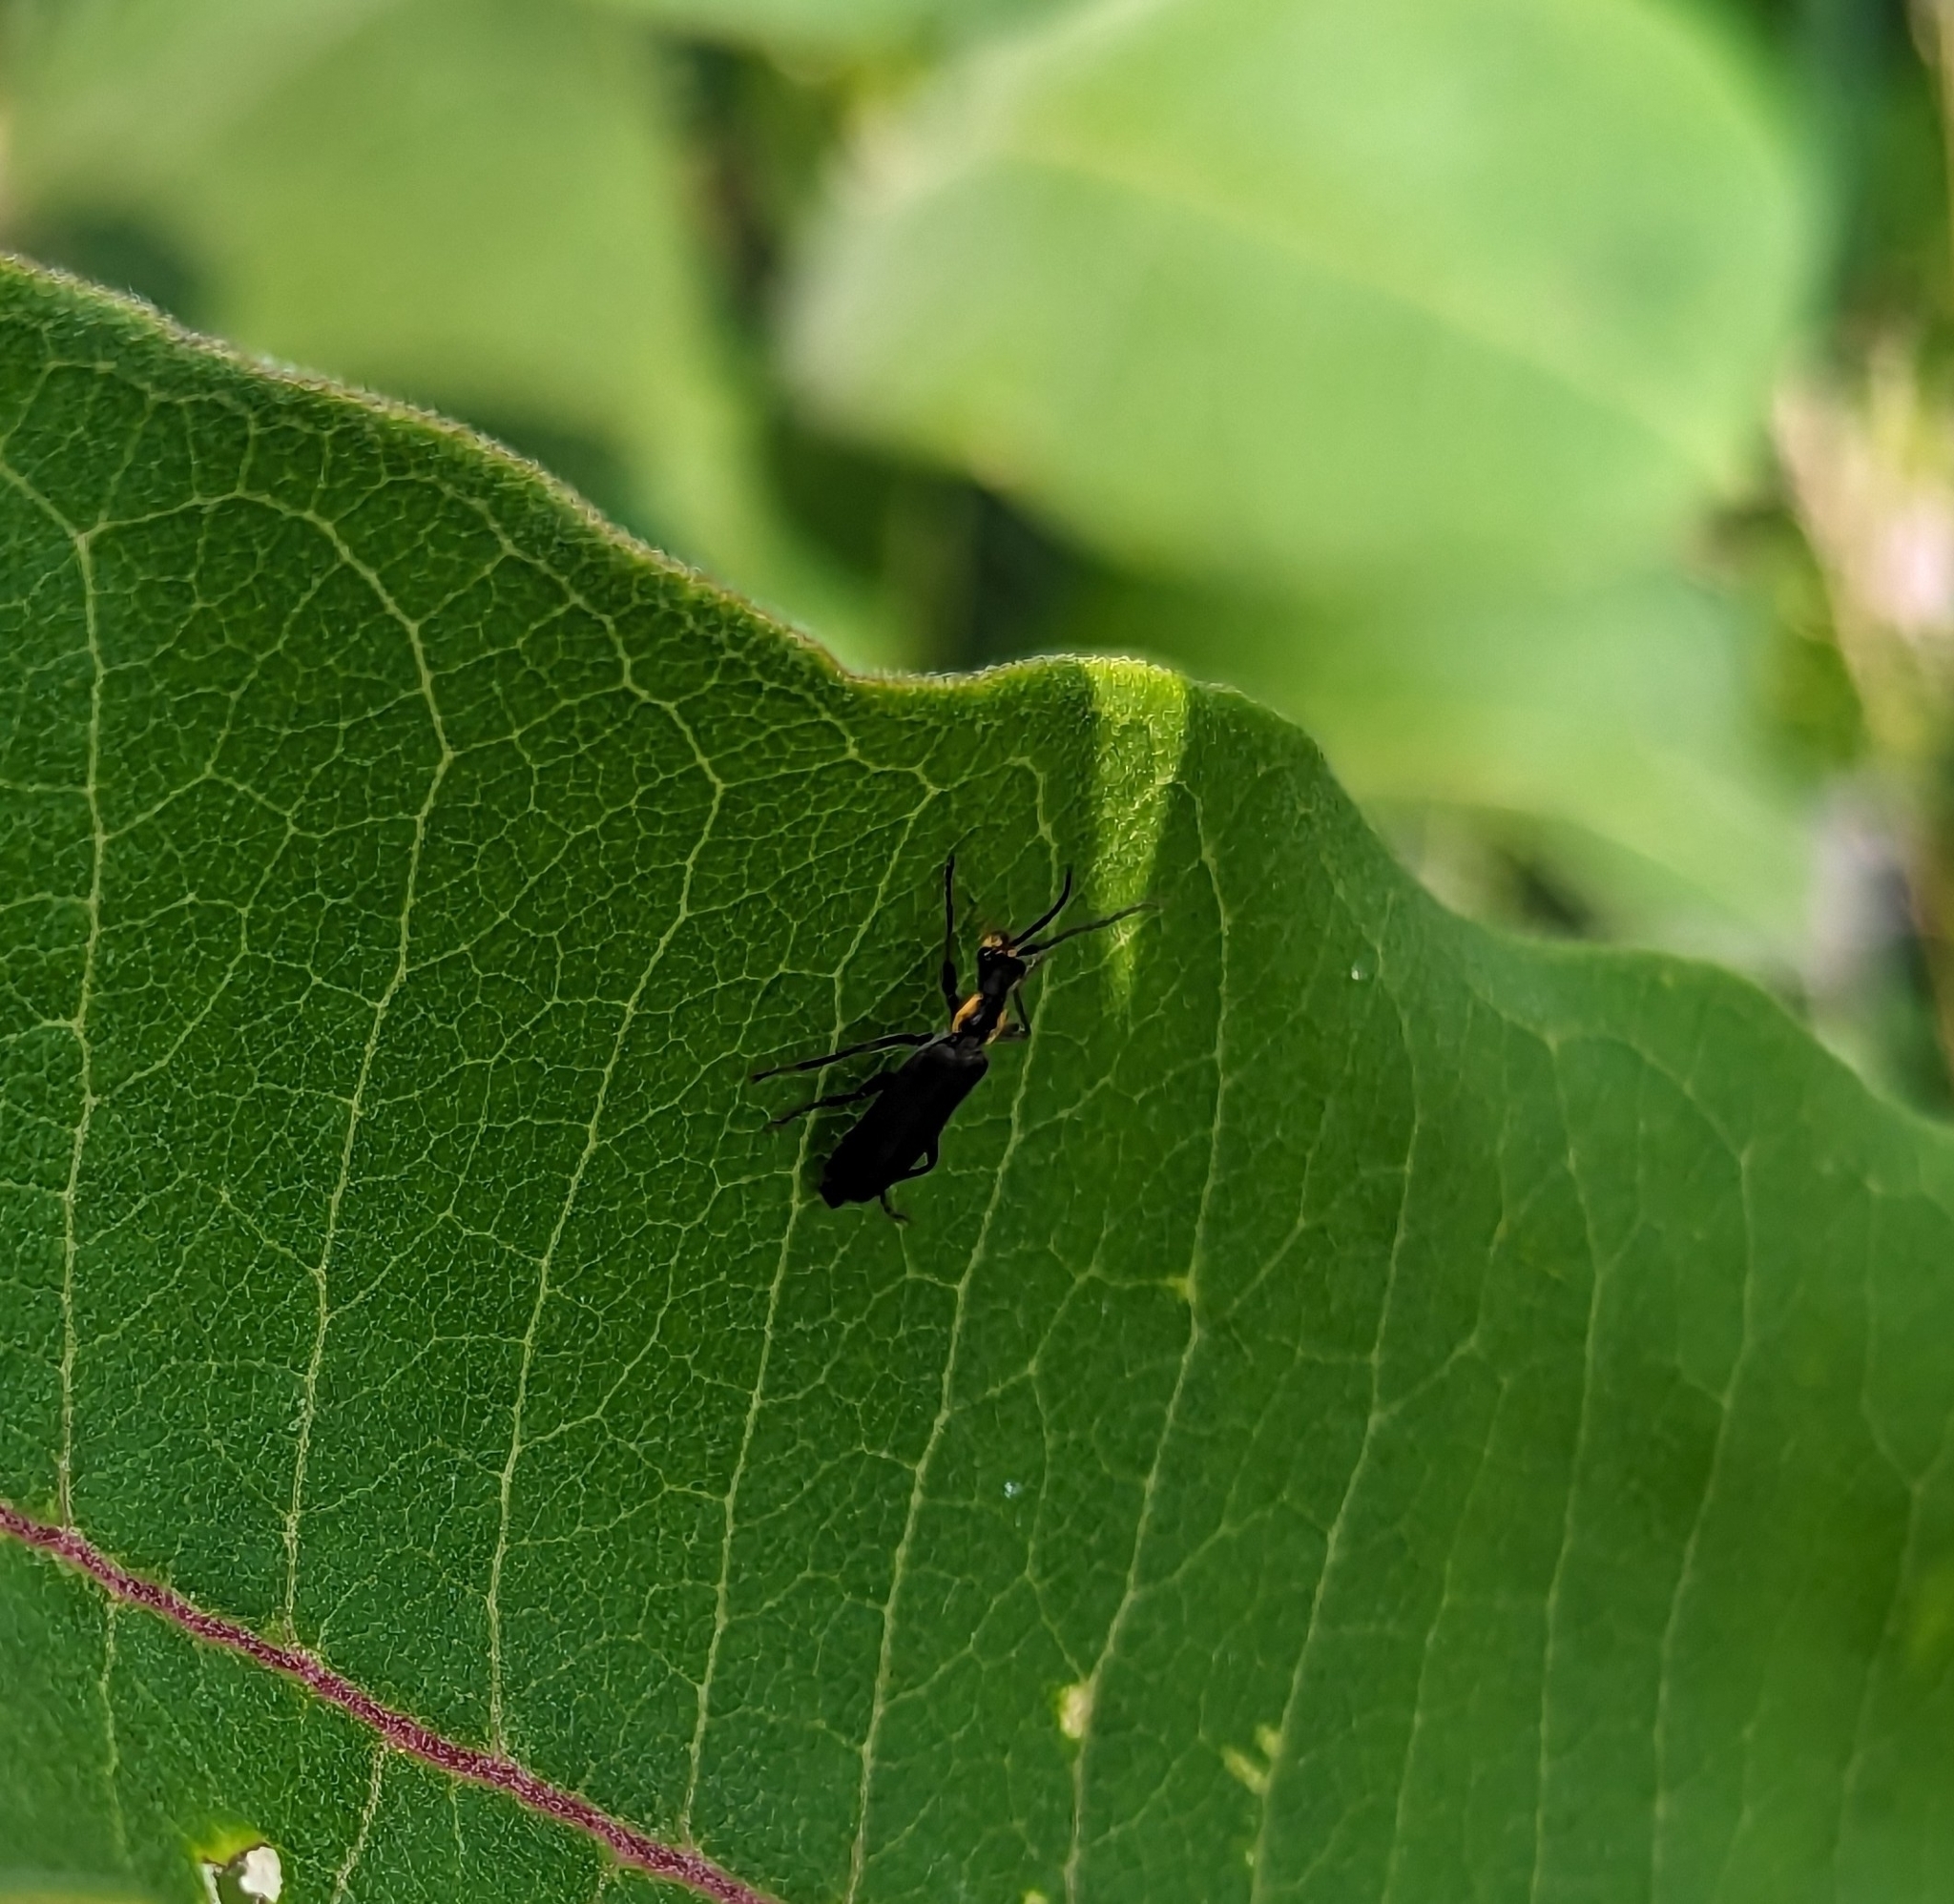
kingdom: Animalia
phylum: Arthropoda
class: Insecta
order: Coleoptera
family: Cantharidae
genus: Podabrus
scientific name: Podabrus rugosulus
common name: Wrinkled soldier beetle
